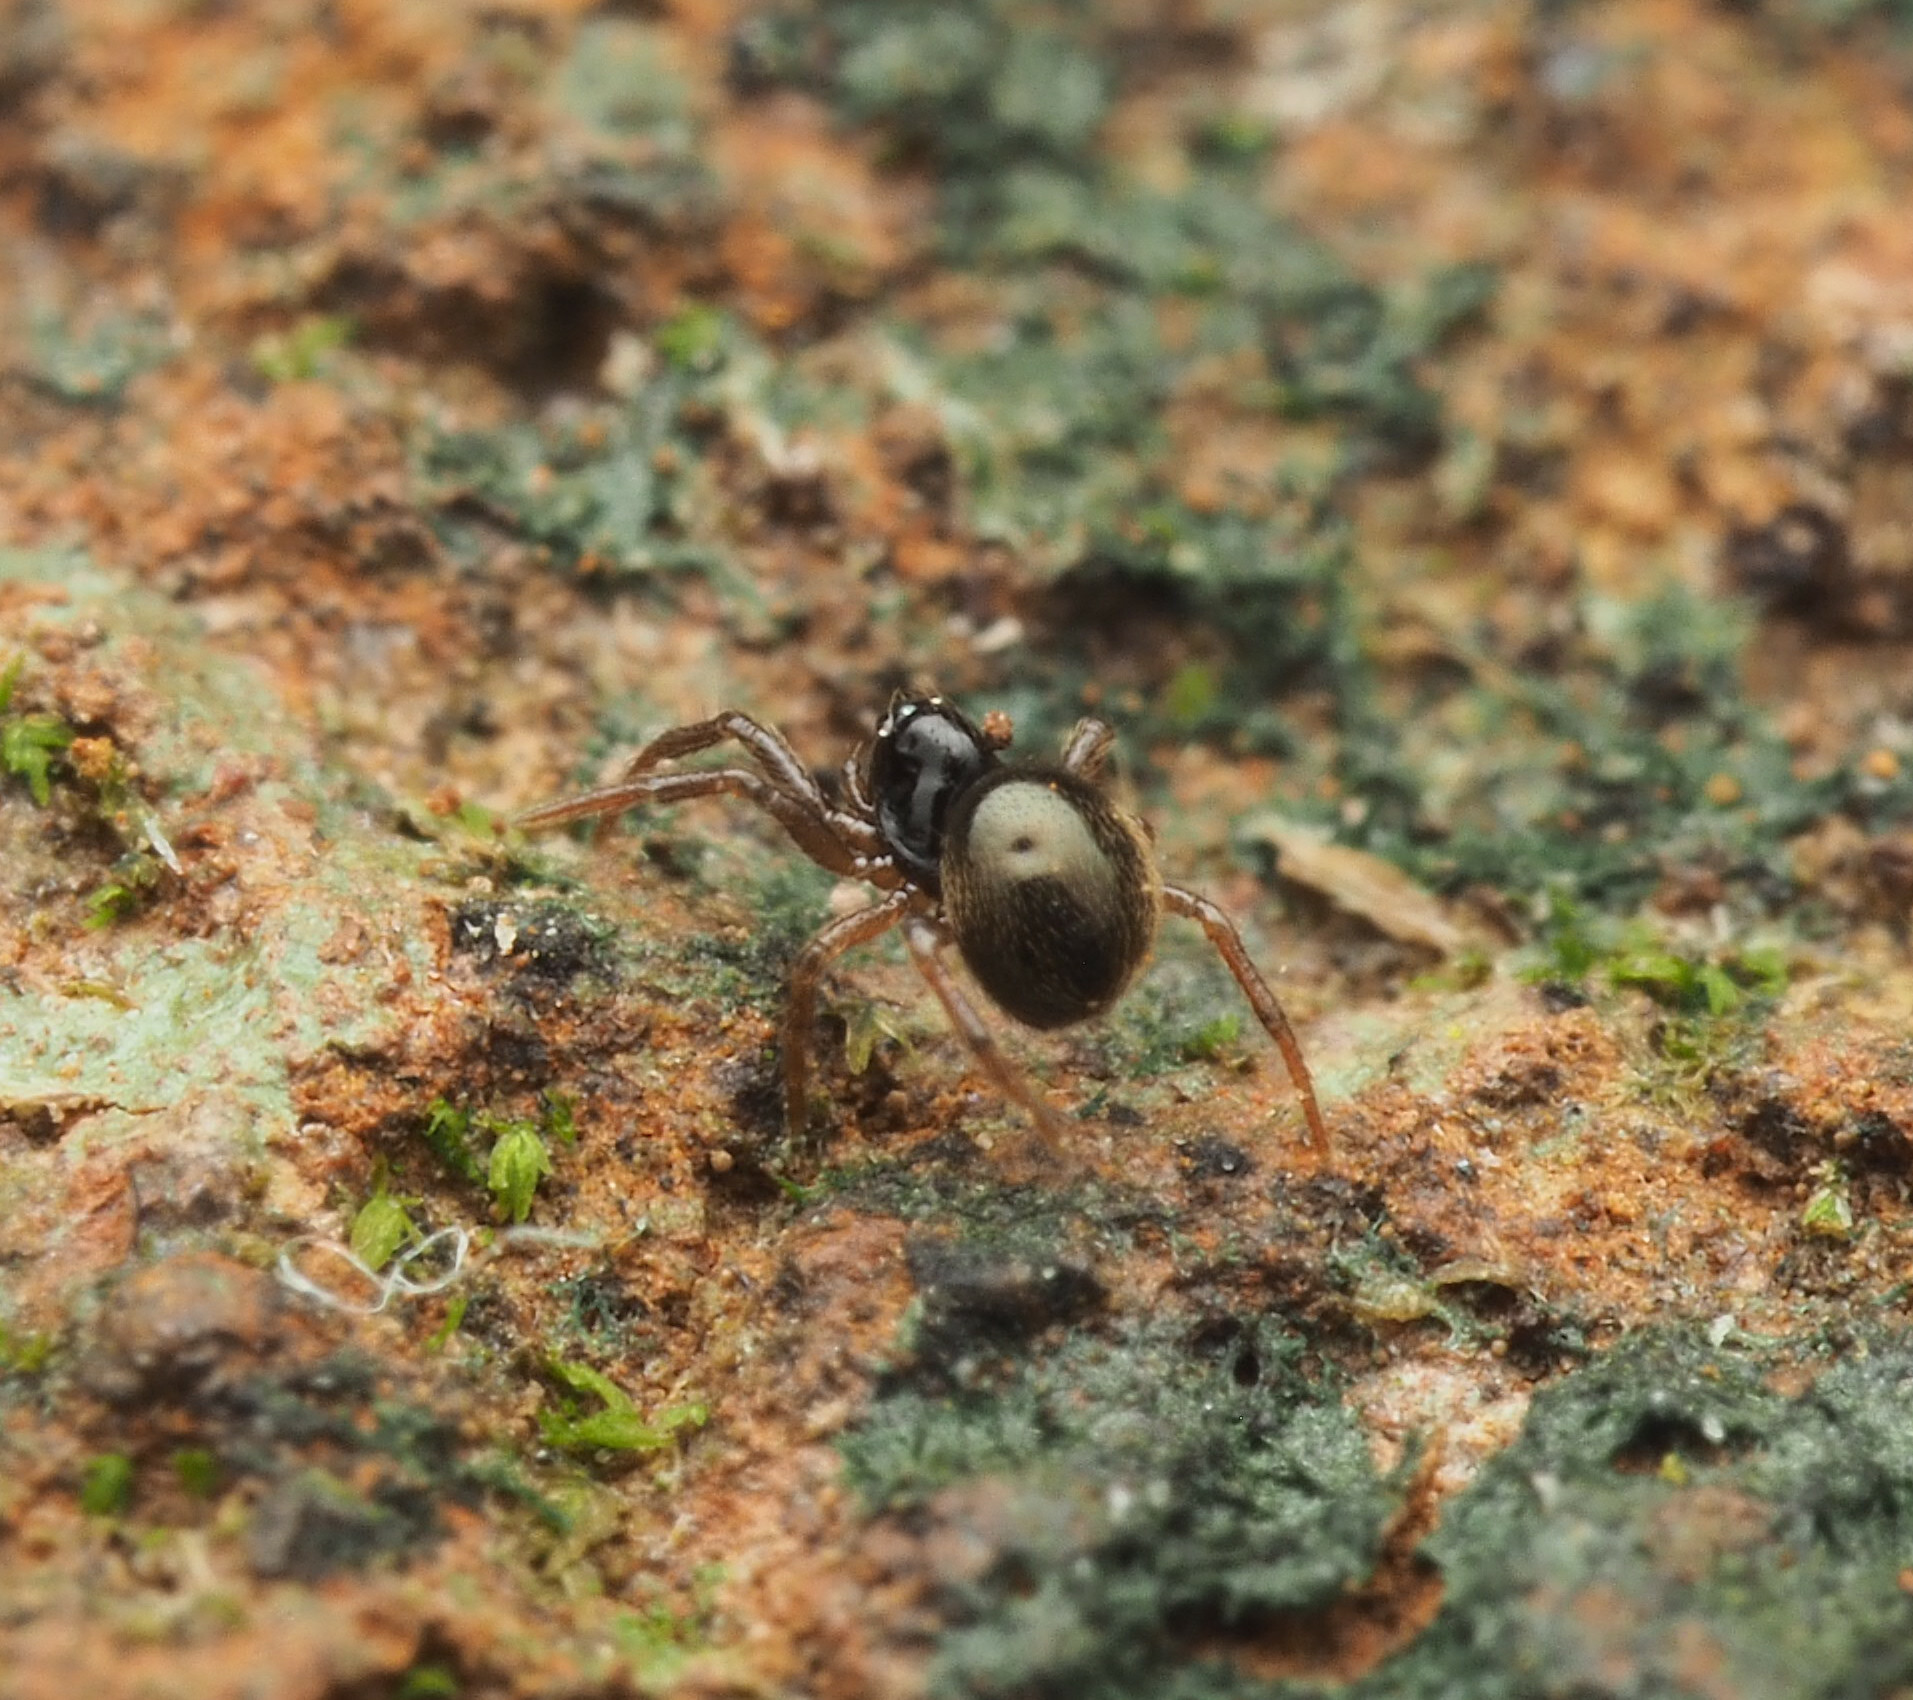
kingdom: Animalia
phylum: Arthropoda
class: Arachnida
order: Araneae
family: Theridiidae
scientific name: Theridiidae
